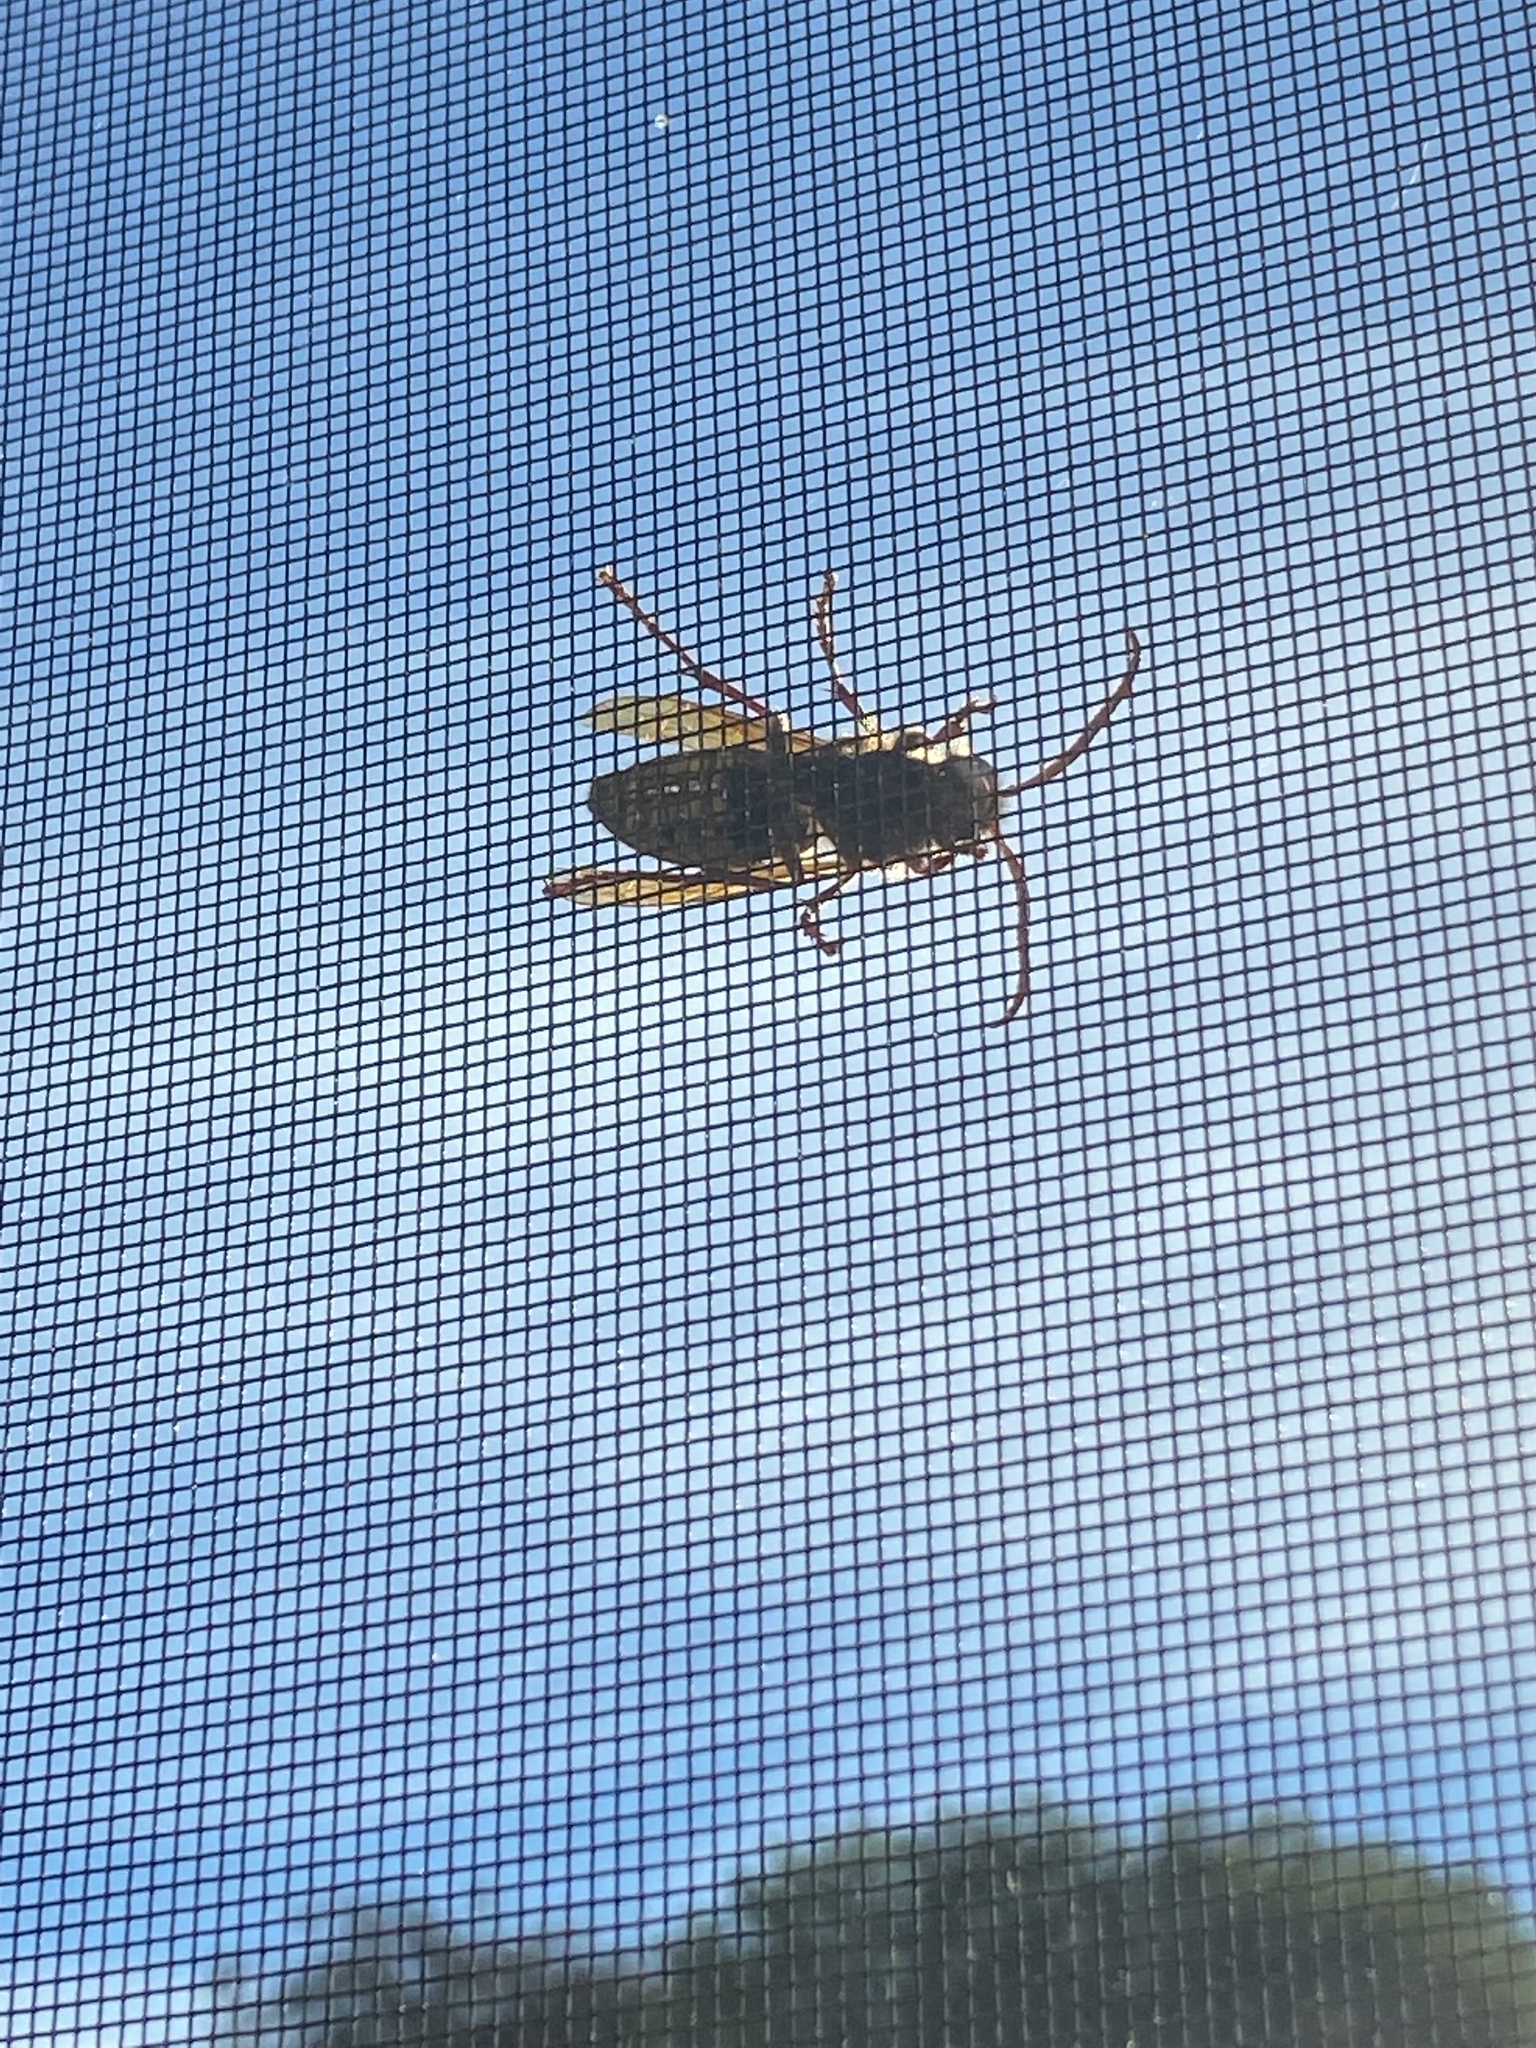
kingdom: Animalia
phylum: Arthropoda
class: Insecta
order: Hymenoptera
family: Vespidae
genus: Vespa
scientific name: Vespa crabro
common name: Hornet
